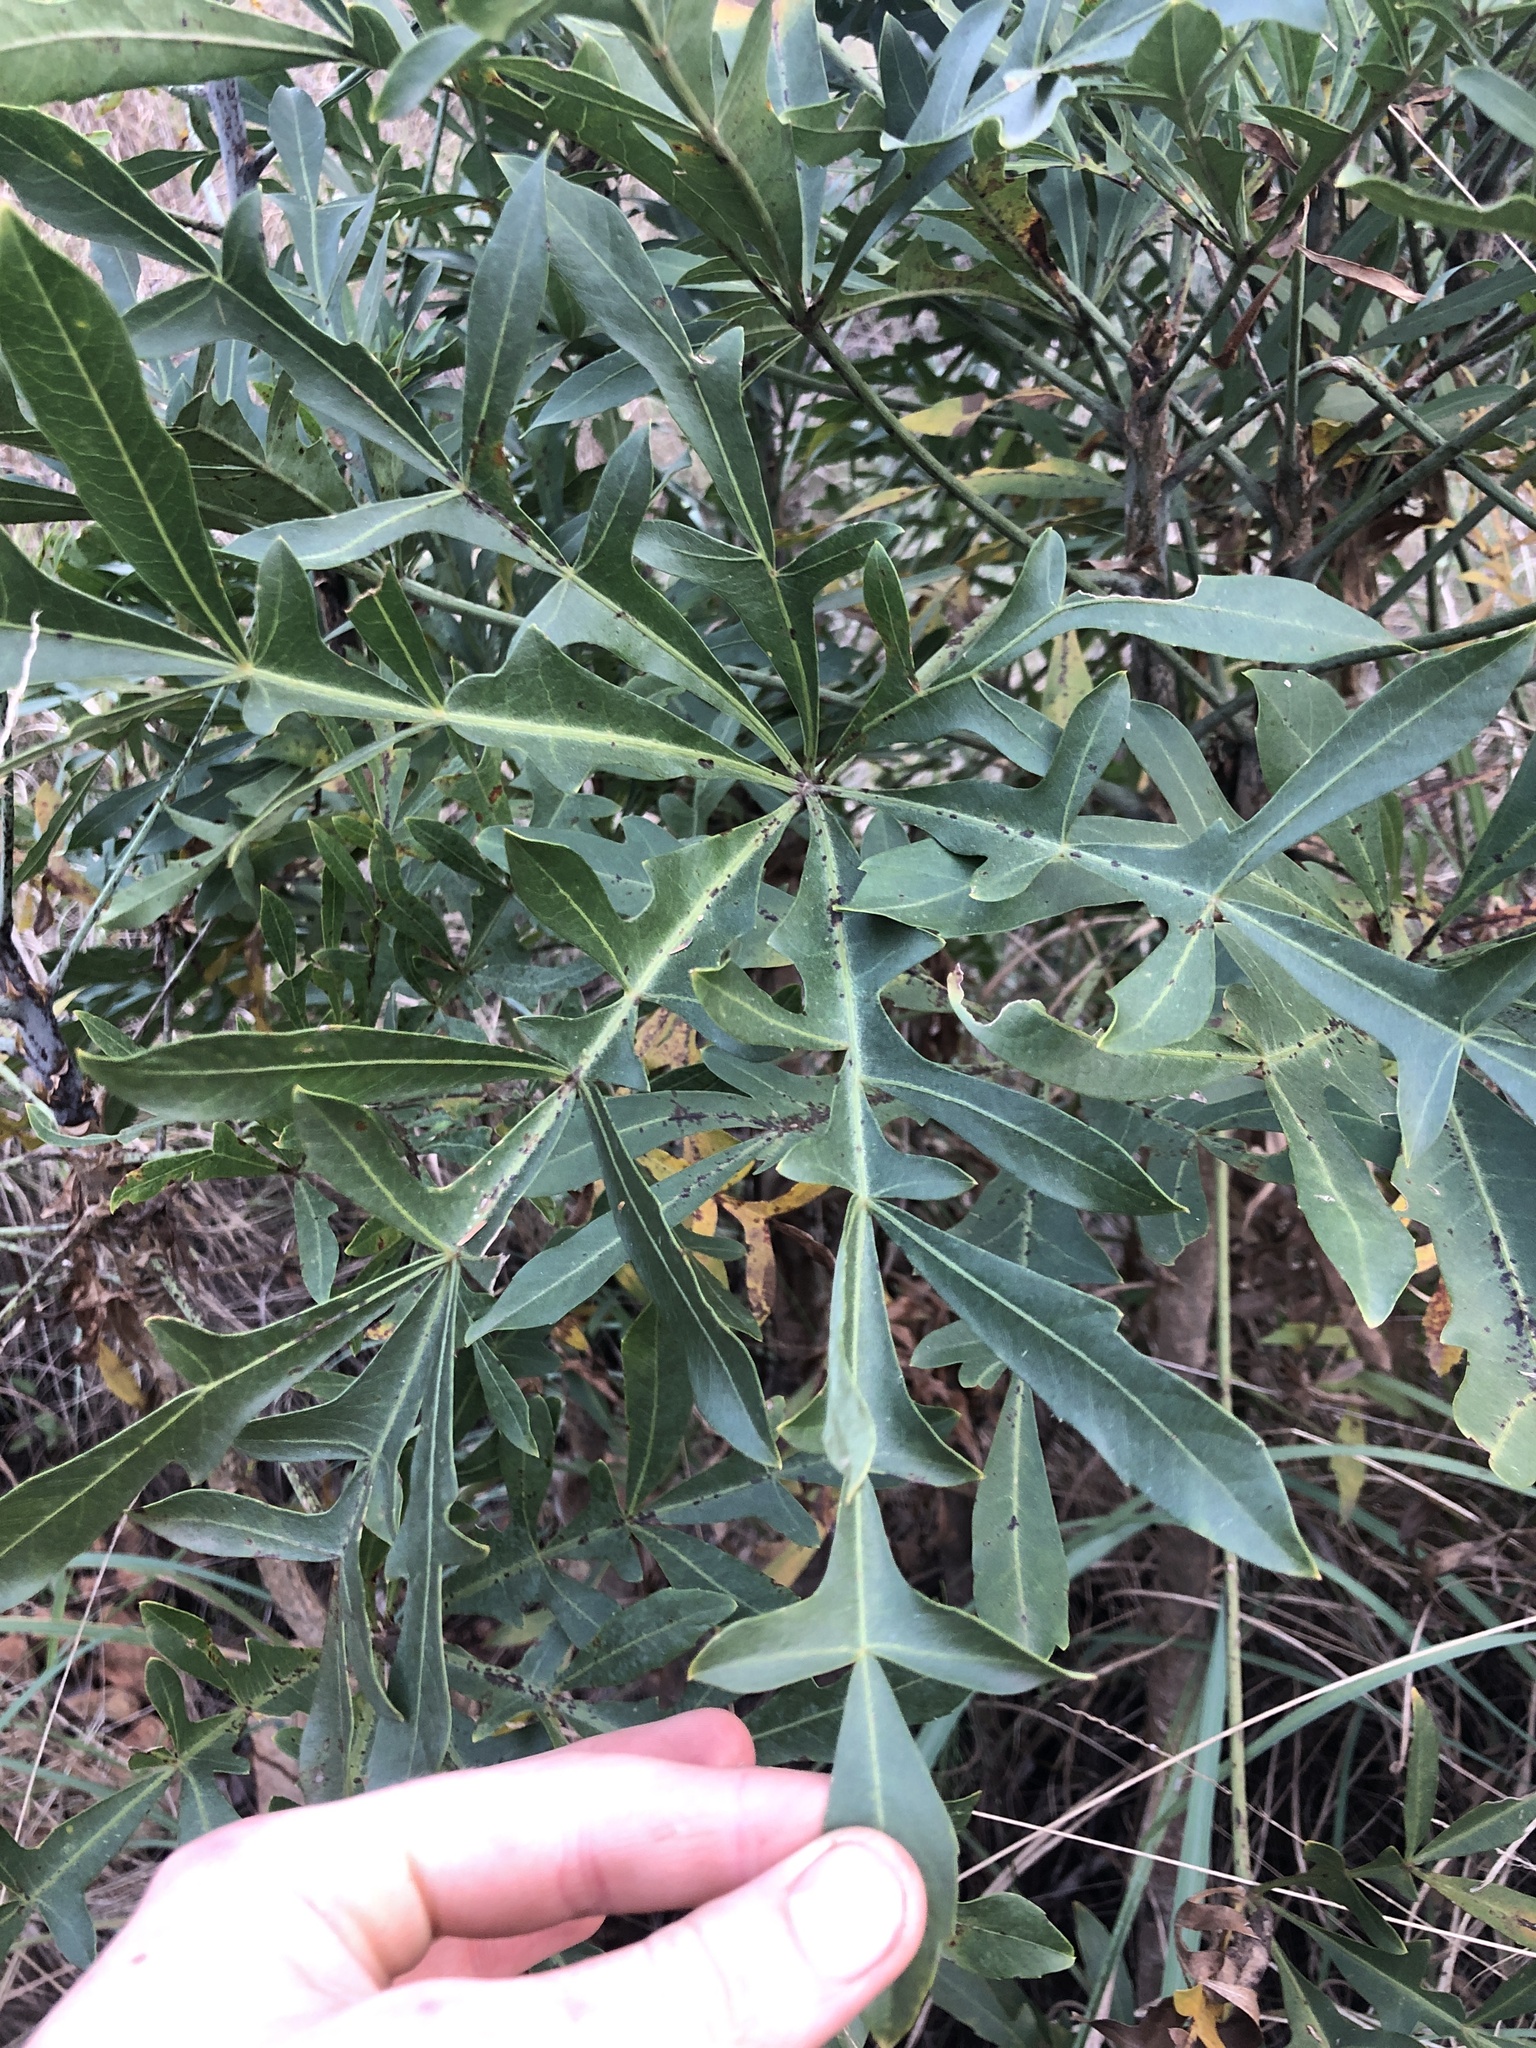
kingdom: Plantae
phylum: Tracheophyta
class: Magnoliopsida
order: Apiales
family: Araliaceae
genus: Cussonia
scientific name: Cussonia transvaalensis
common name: Grey cabbage-tree
